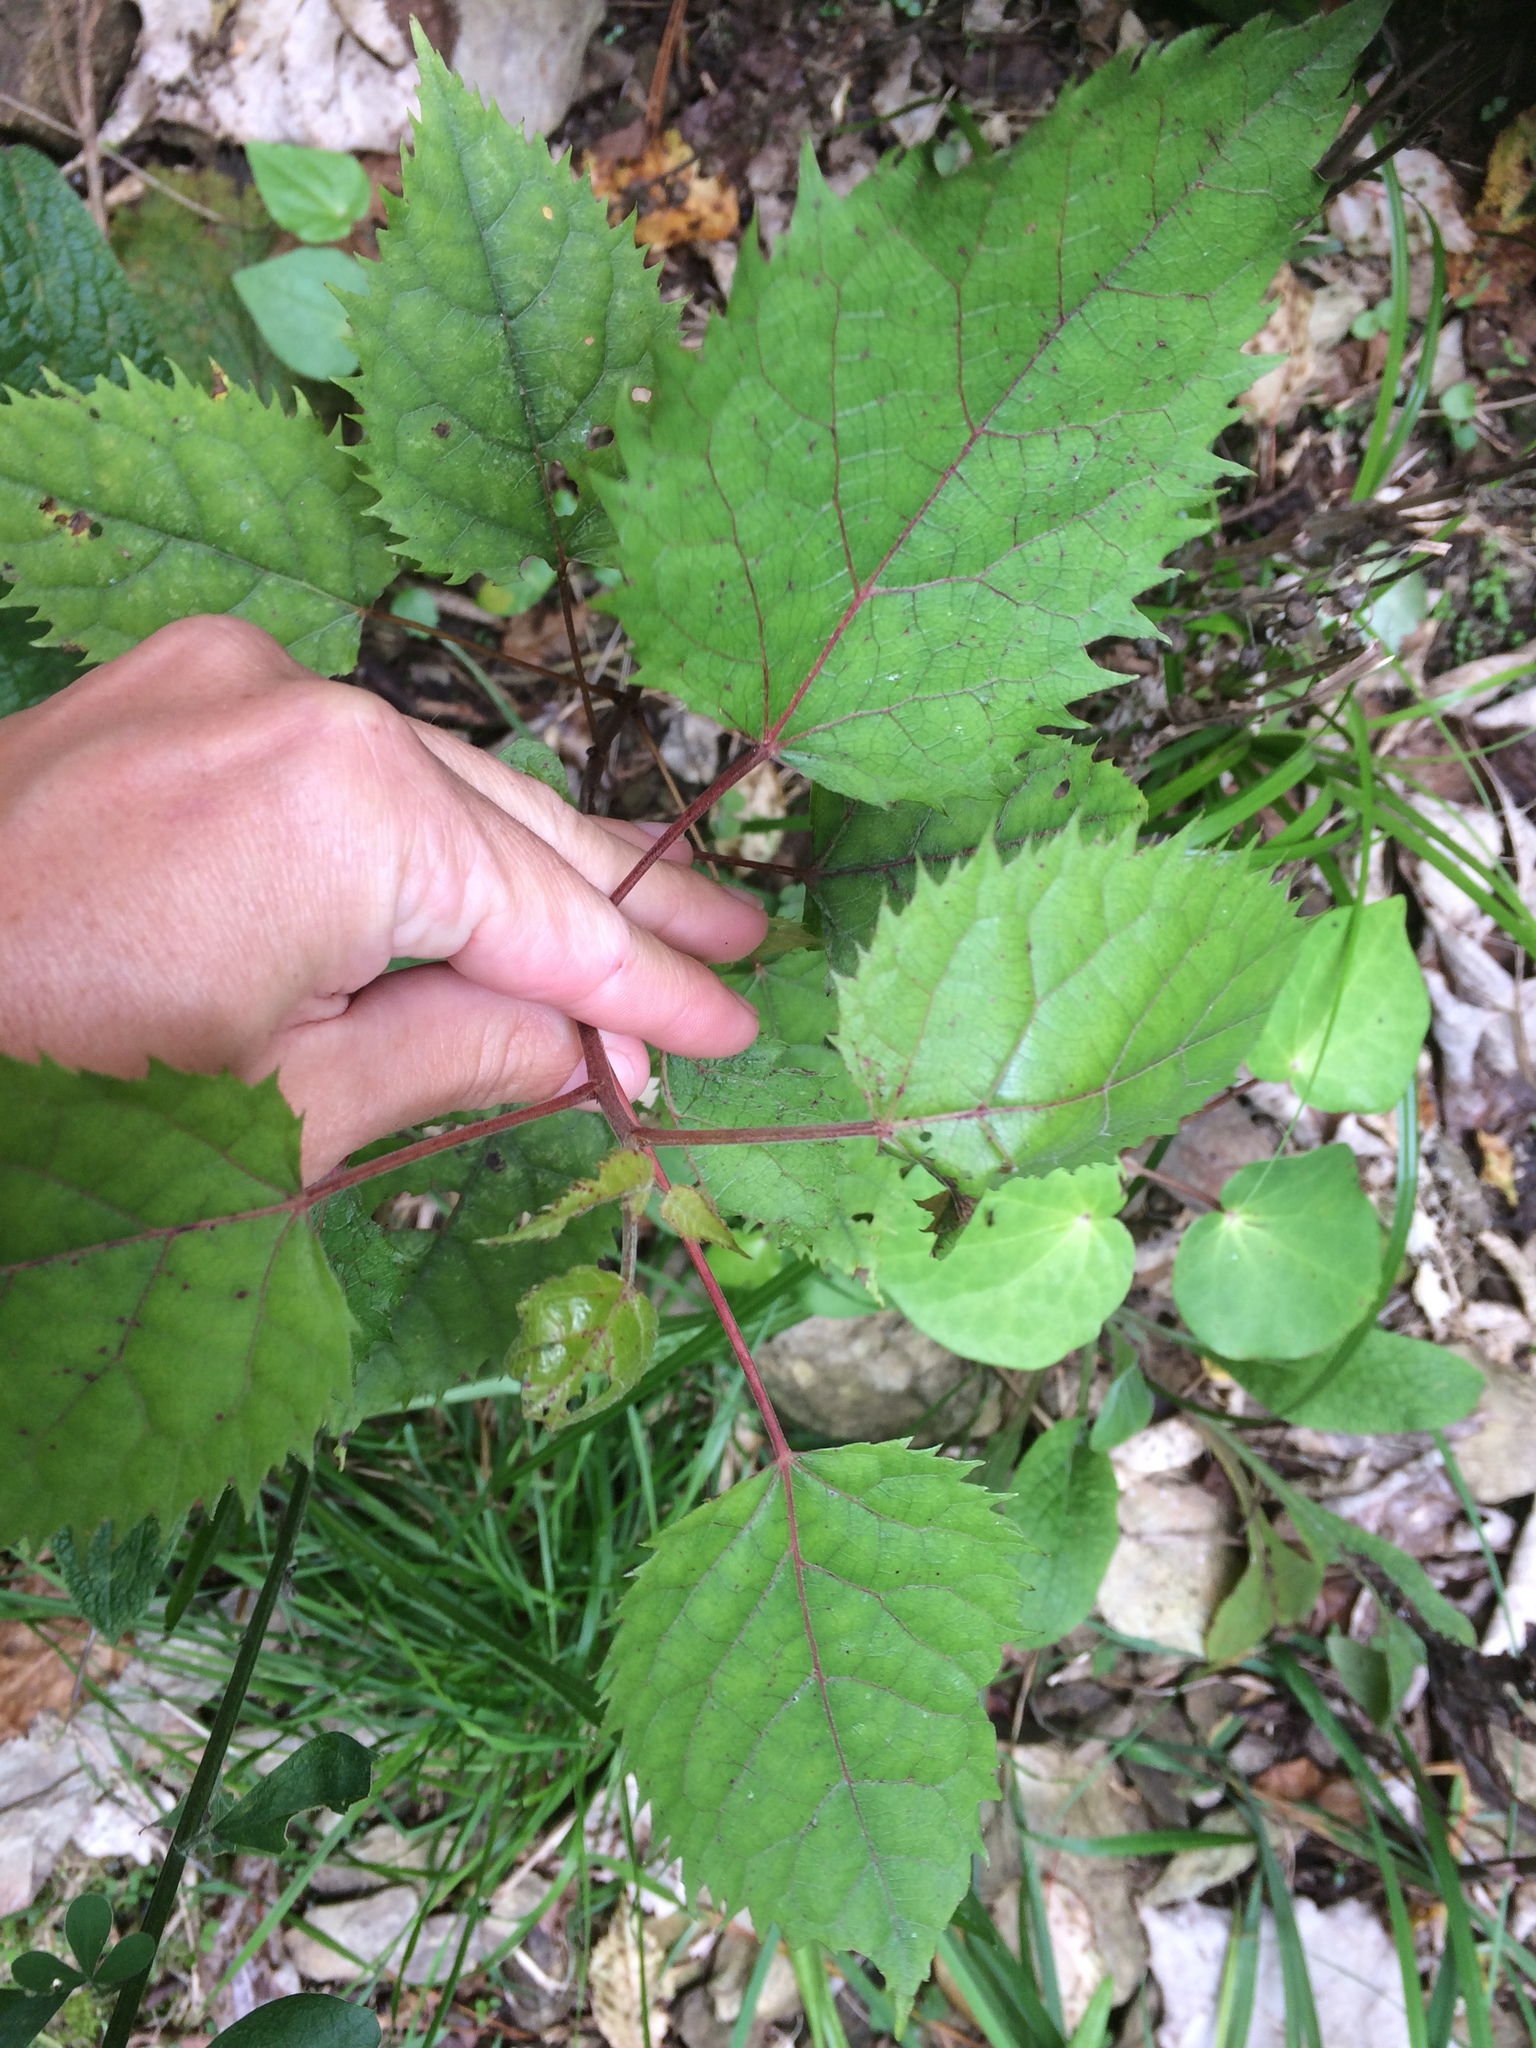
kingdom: Plantae
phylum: Tracheophyta
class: Magnoliopsida
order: Oxalidales
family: Elaeocarpaceae
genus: Aristotelia
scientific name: Aristotelia serrata
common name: New zealand wineberry
